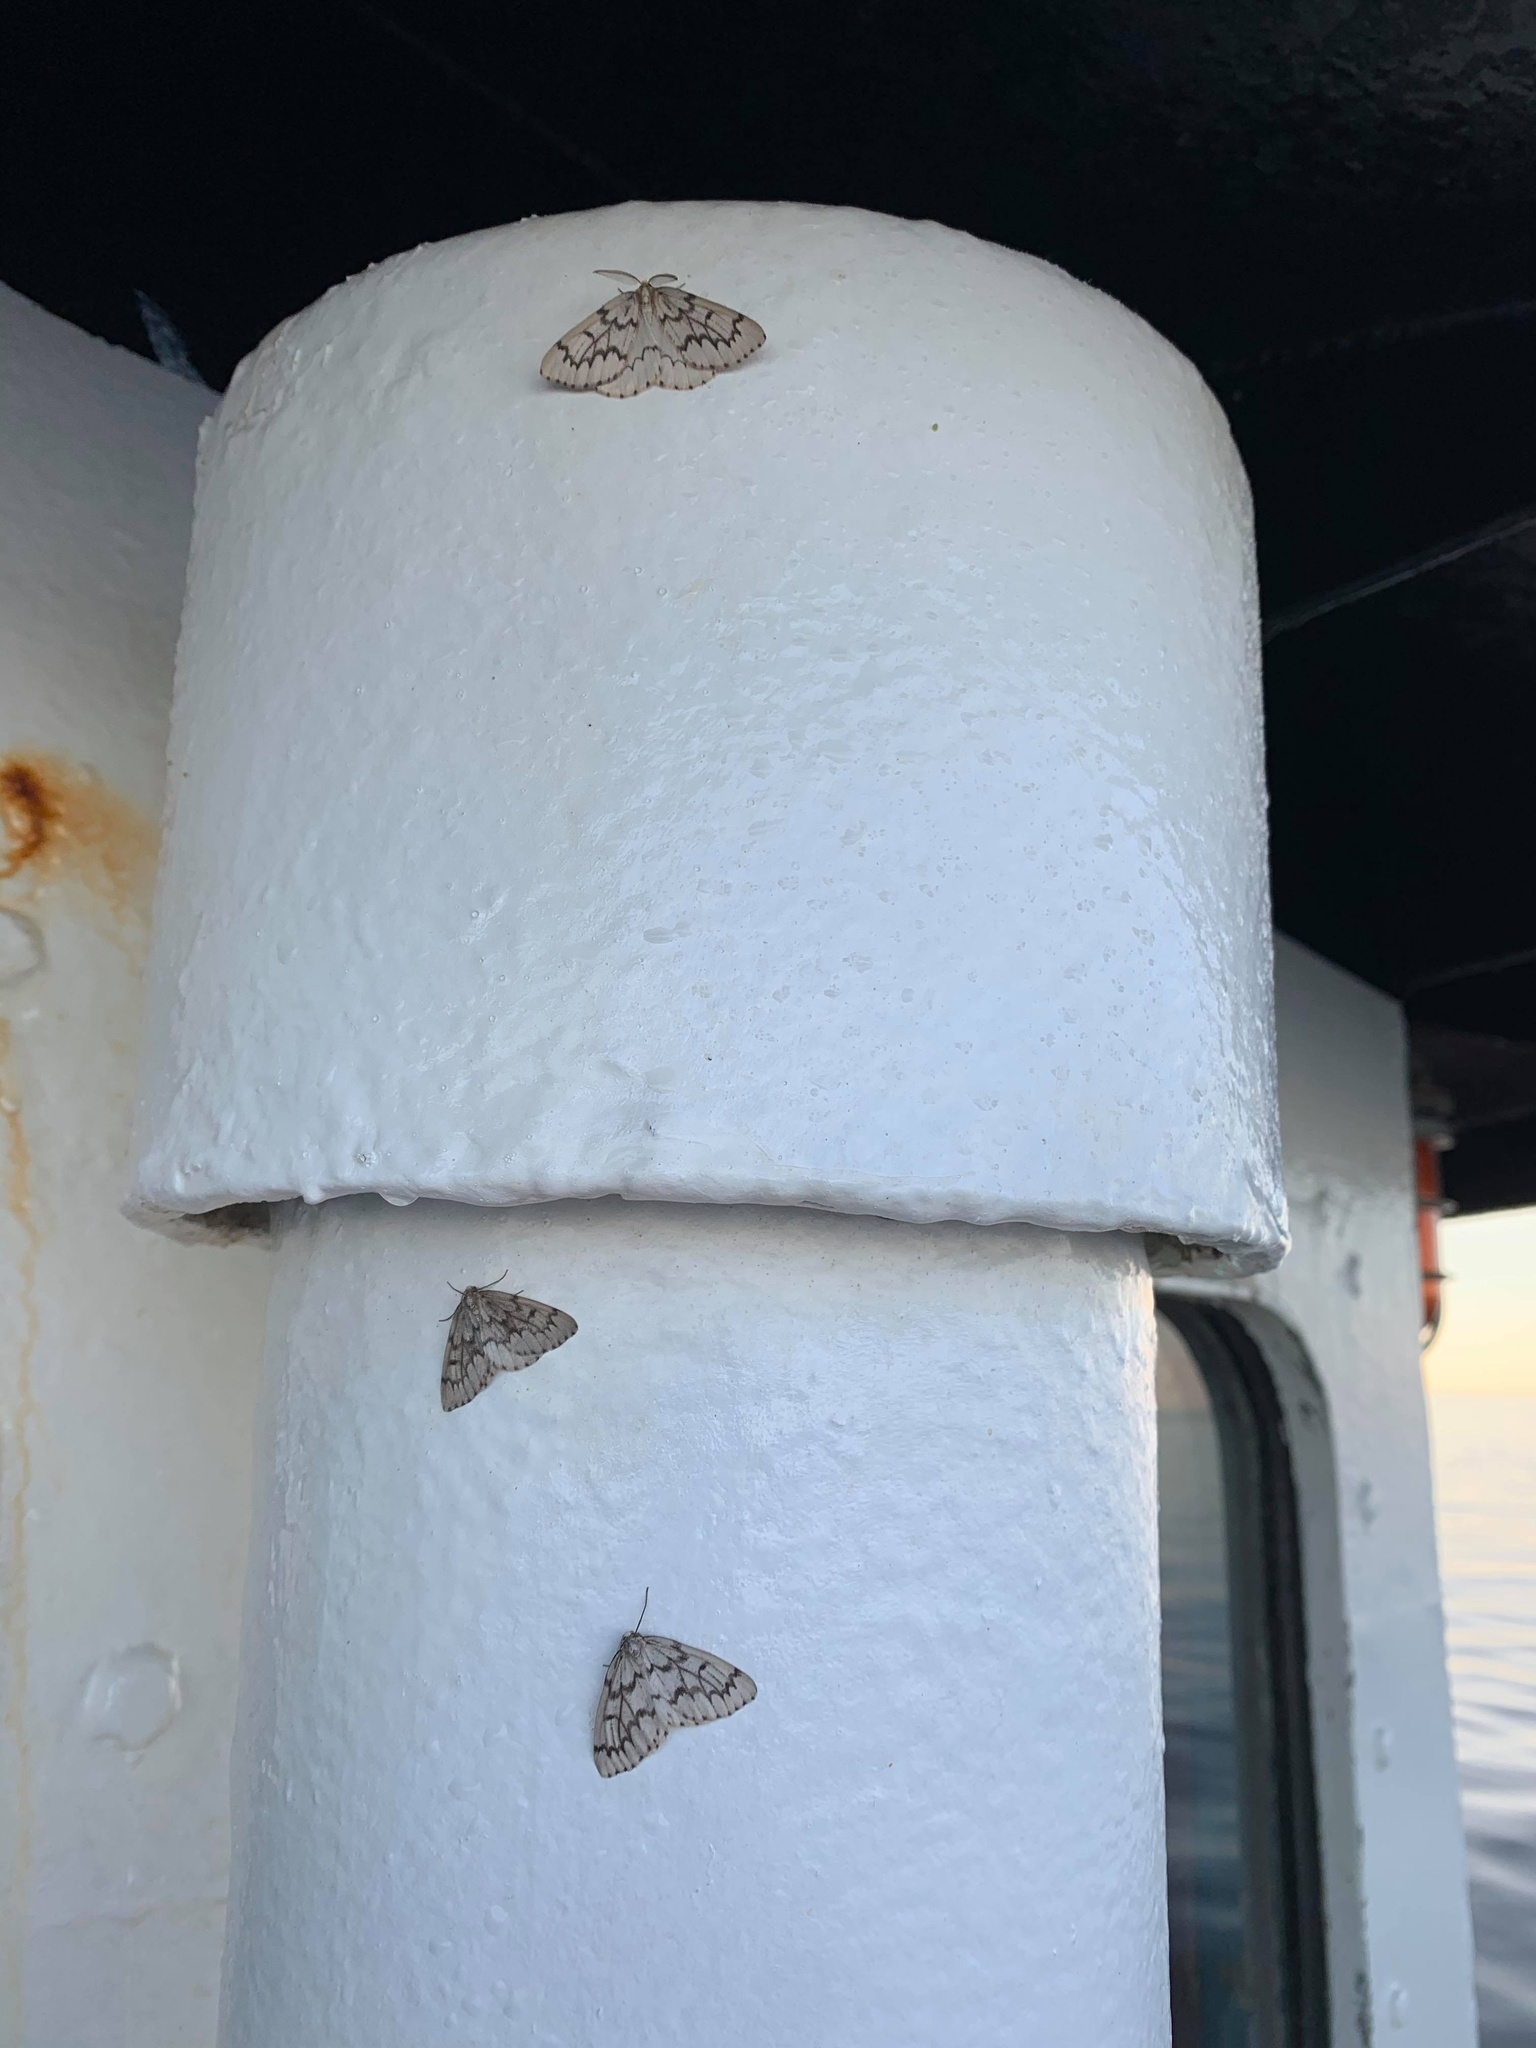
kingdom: Animalia
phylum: Arthropoda
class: Insecta
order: Lepidoptera
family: Geometridae
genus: Nepytia
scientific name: Nepytia phantasmaria
